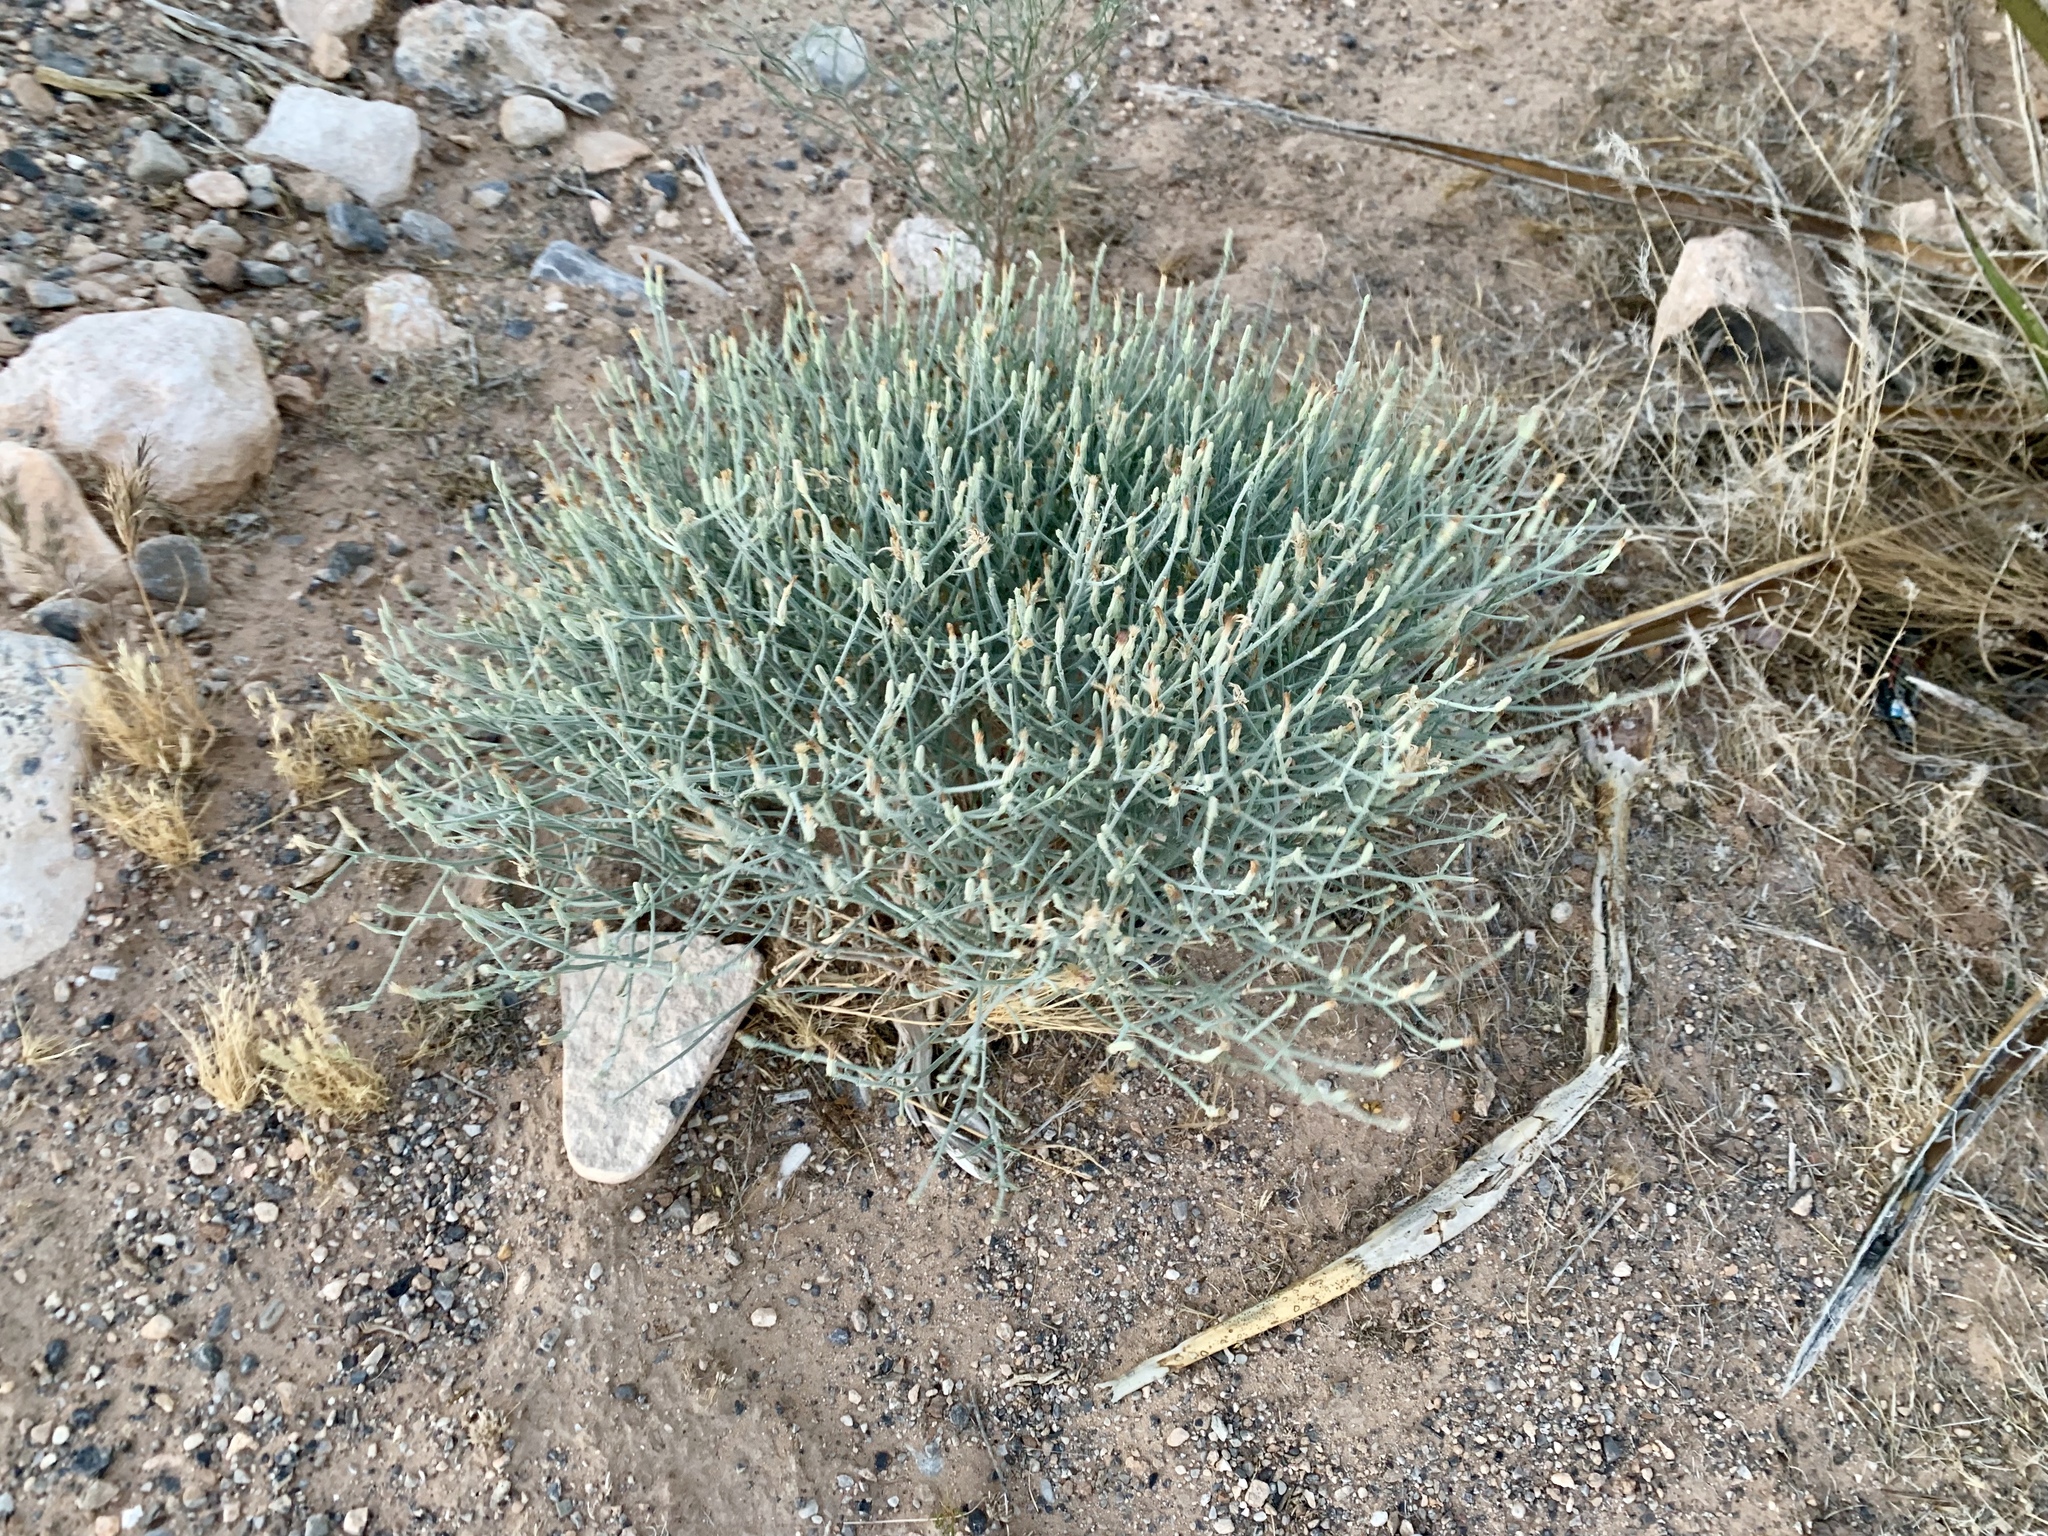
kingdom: Plantae
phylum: Tracheophyta
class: Magnoliopsida
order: Asterales
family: Asteraceae
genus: Porophyllum
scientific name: Porophyllum gracile
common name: Odora
